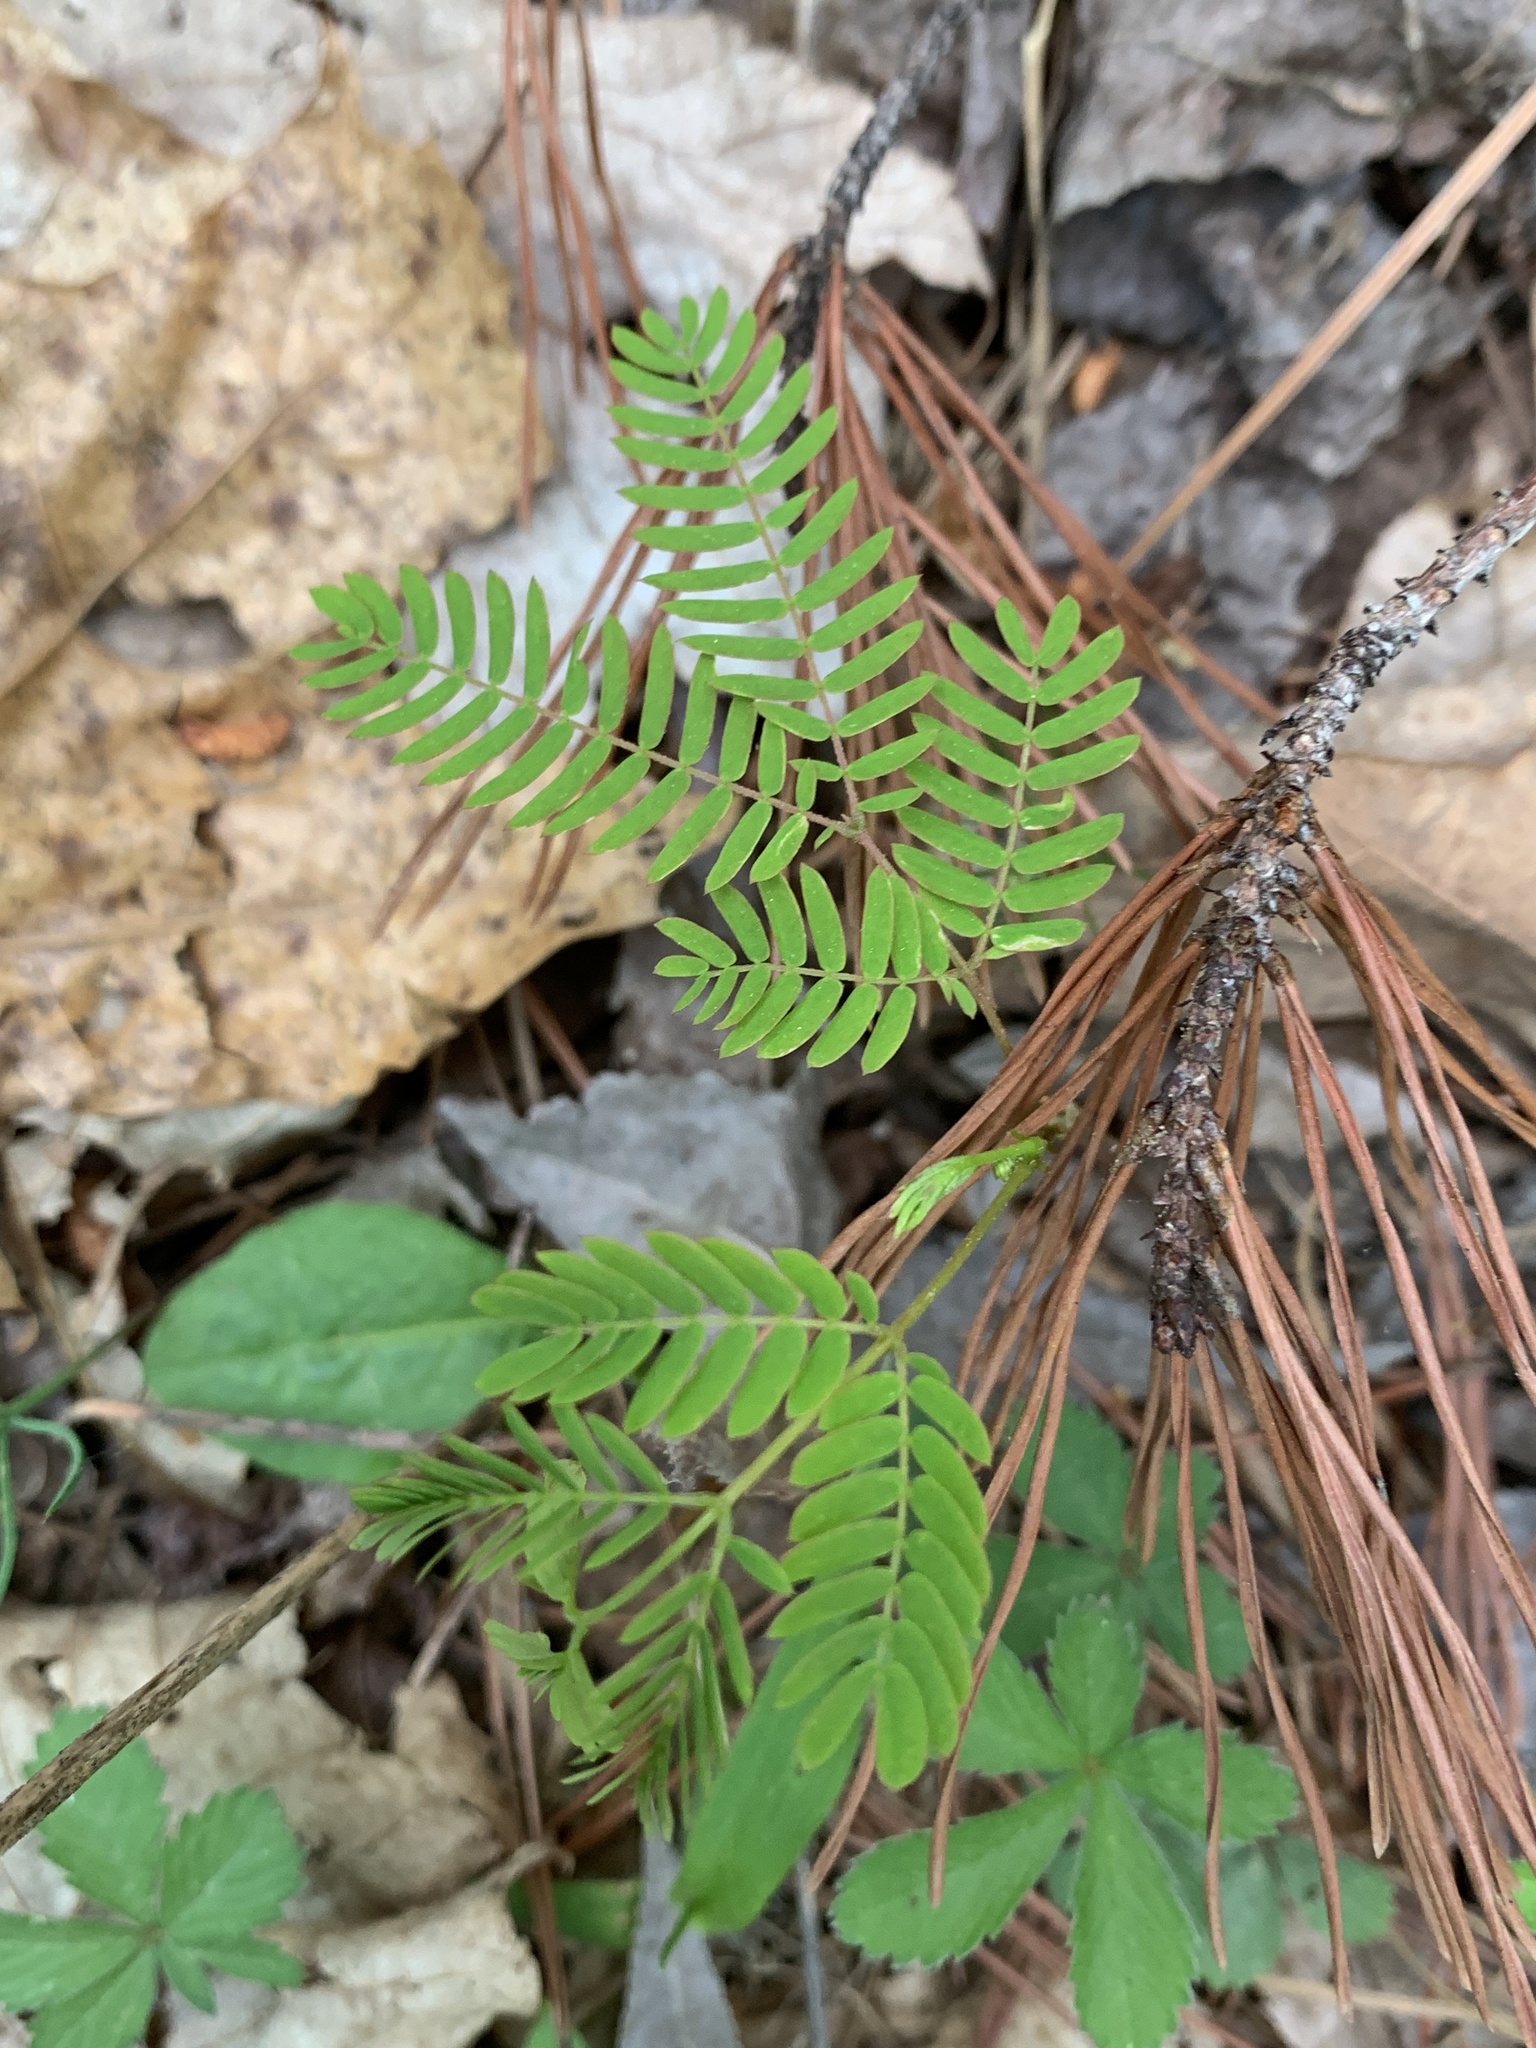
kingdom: Plantae
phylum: Tracheophyta
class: Magnoliopsida
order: Fabales
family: Fabaceae
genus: Albizia
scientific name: Albizia julibrissin
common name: Silktree
